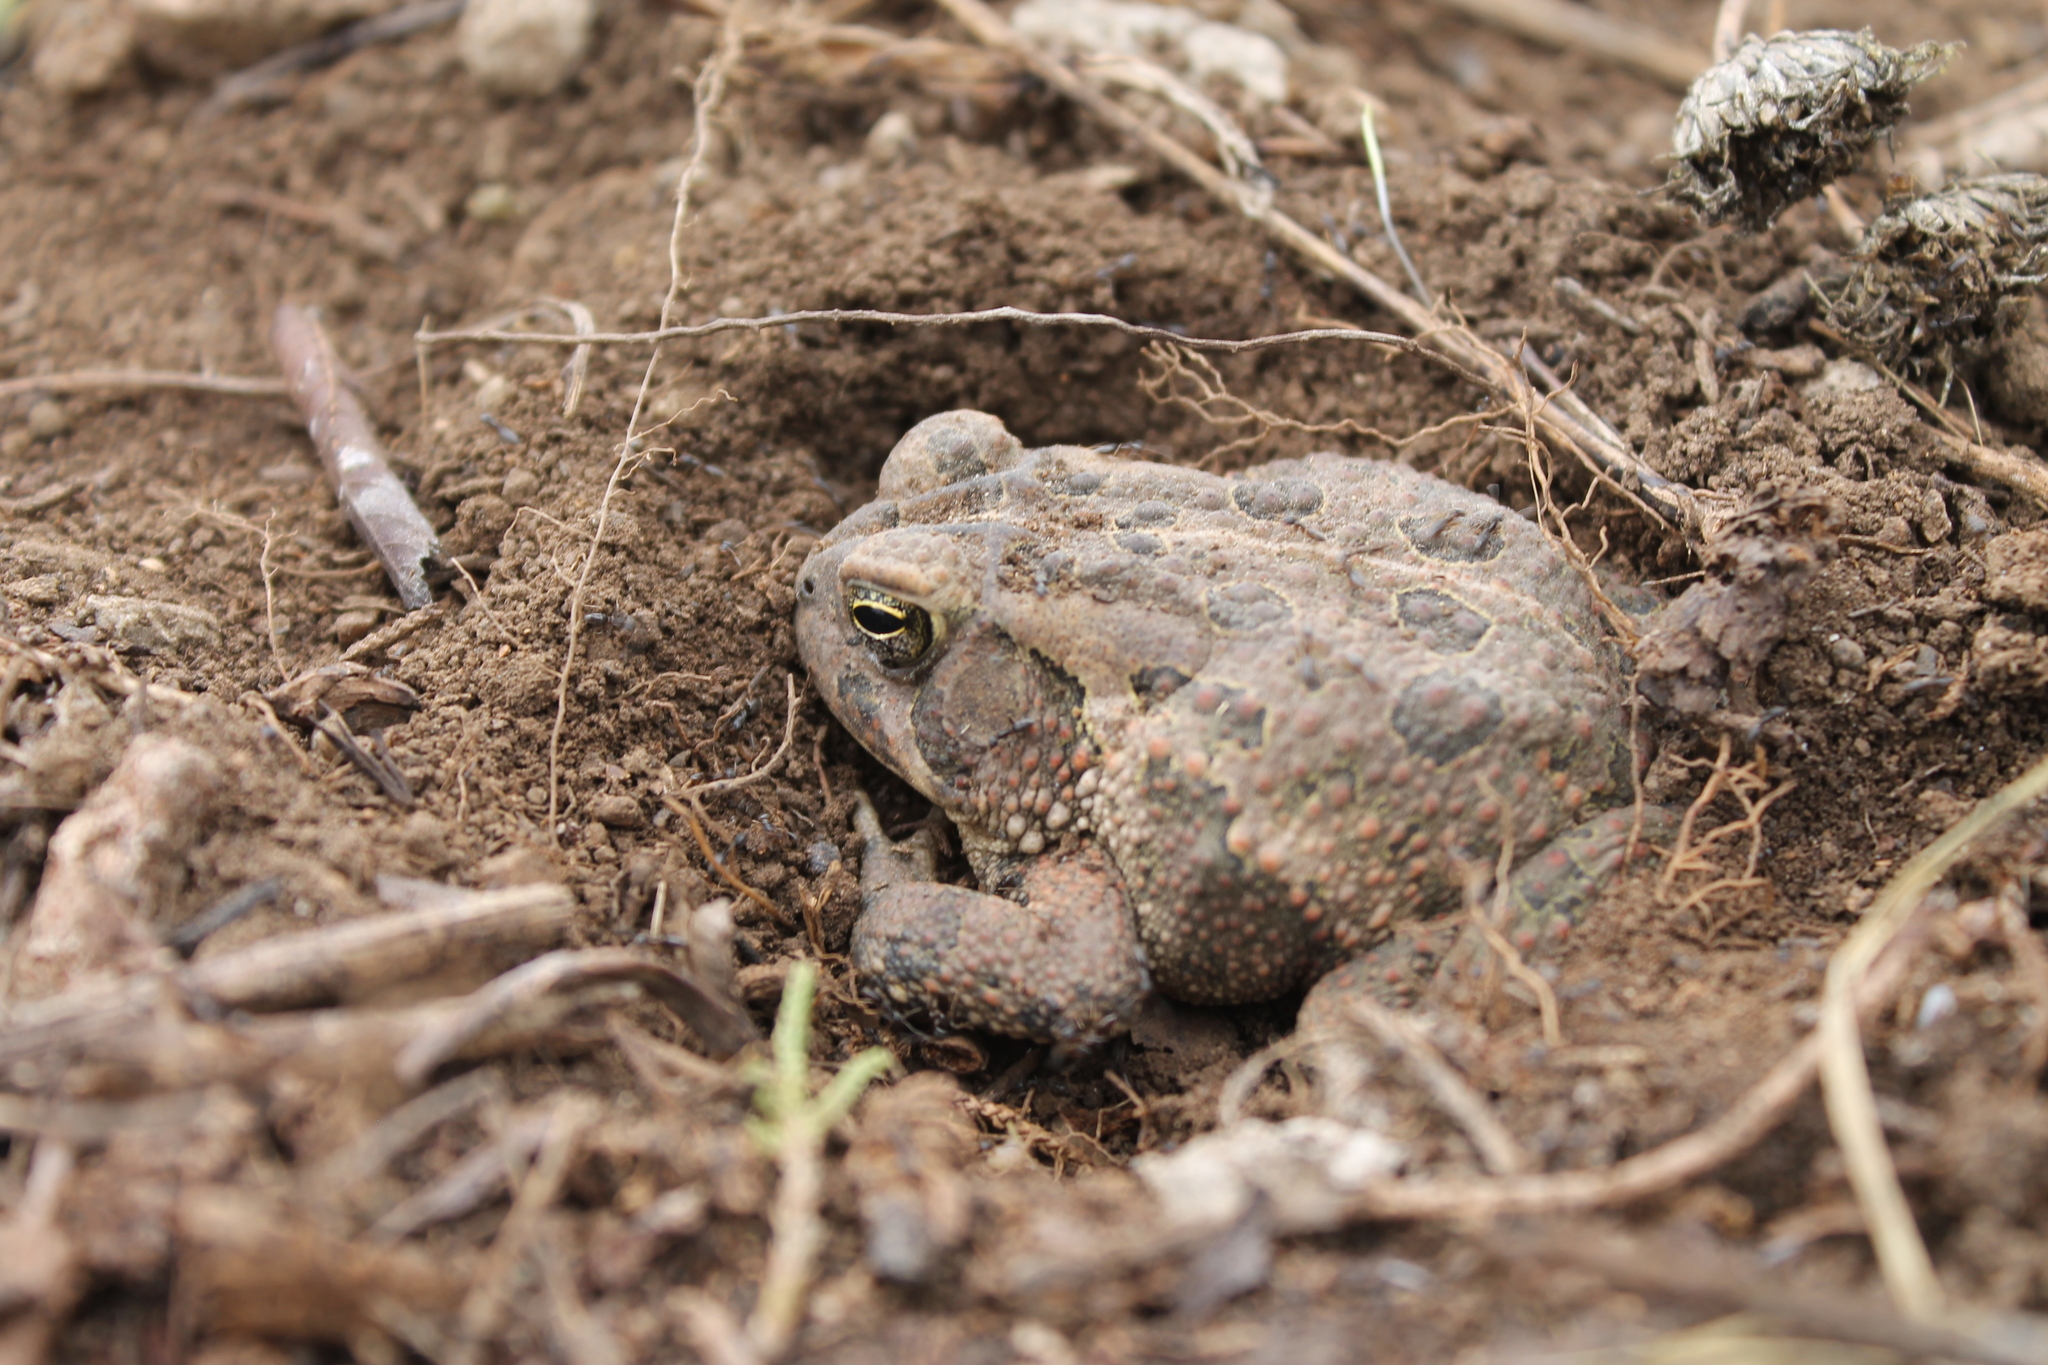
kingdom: Animalia
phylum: Chordata
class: Amphibia
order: Anura
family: Bufonidae
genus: Anaxyrus
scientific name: Anaxyrus fowleri
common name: Fowler's toad
